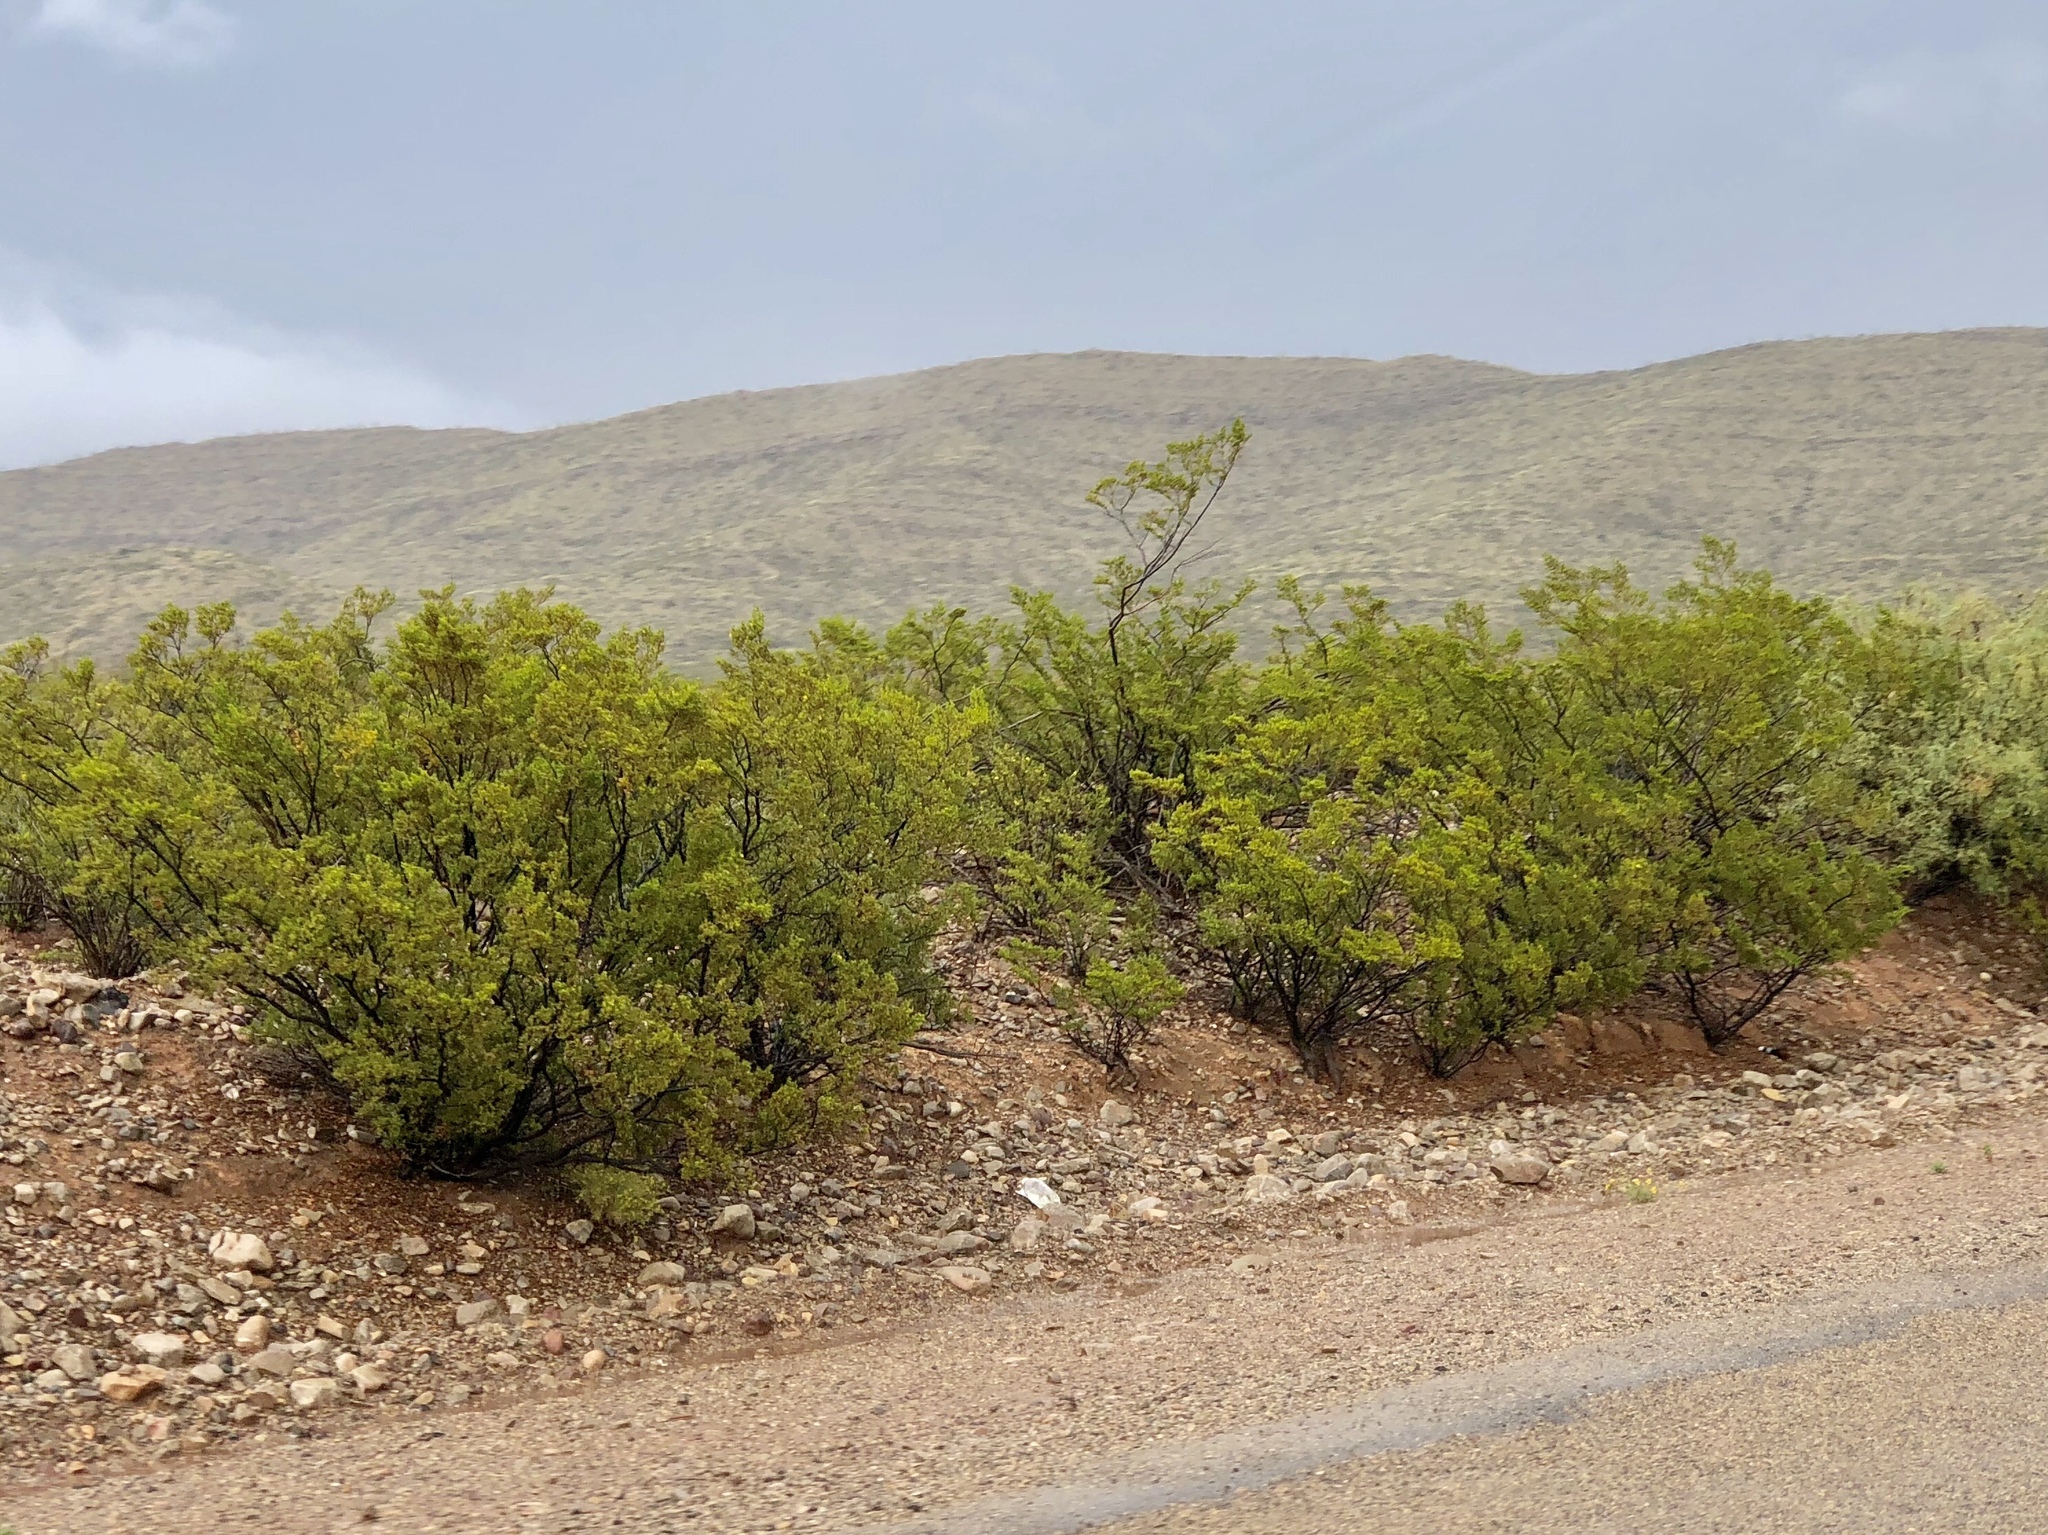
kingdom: Plantae
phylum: Tracheophyta
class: Magnoliopsida
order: Zygophyllales
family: Zygophyllaceae
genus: Larrea
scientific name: Larrea tridentata
